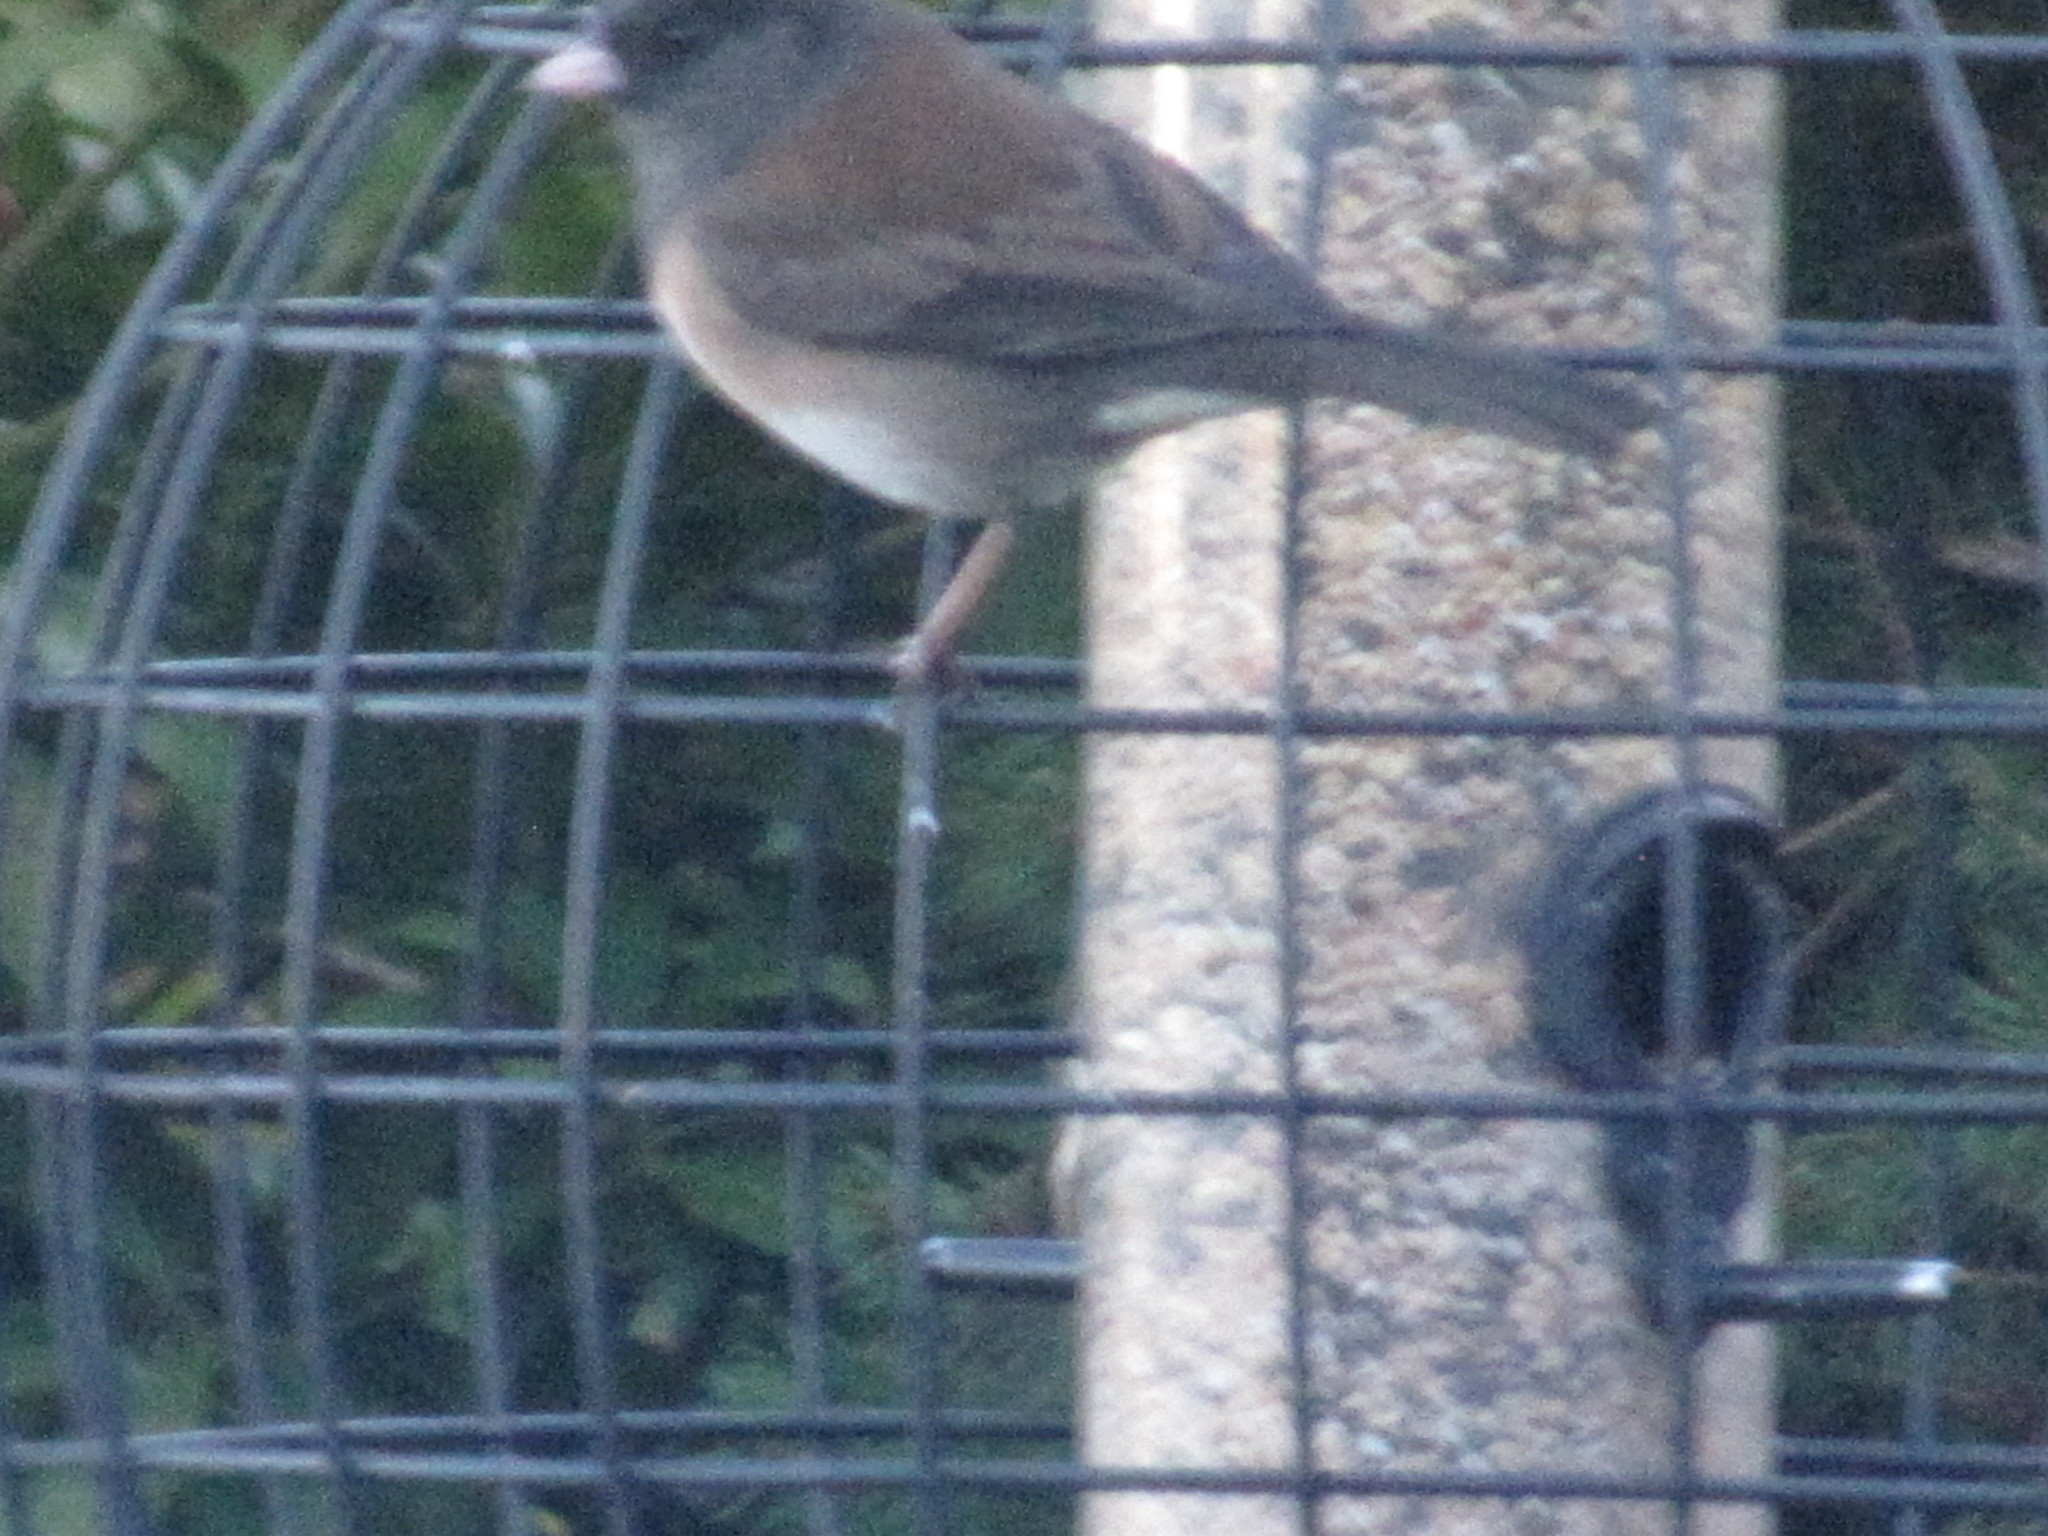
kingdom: Animalia
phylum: Chordata
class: Aves
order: Passeriformes
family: Passerellidae
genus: Junco
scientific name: Junco hyemalis
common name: Dark-eyed junco
